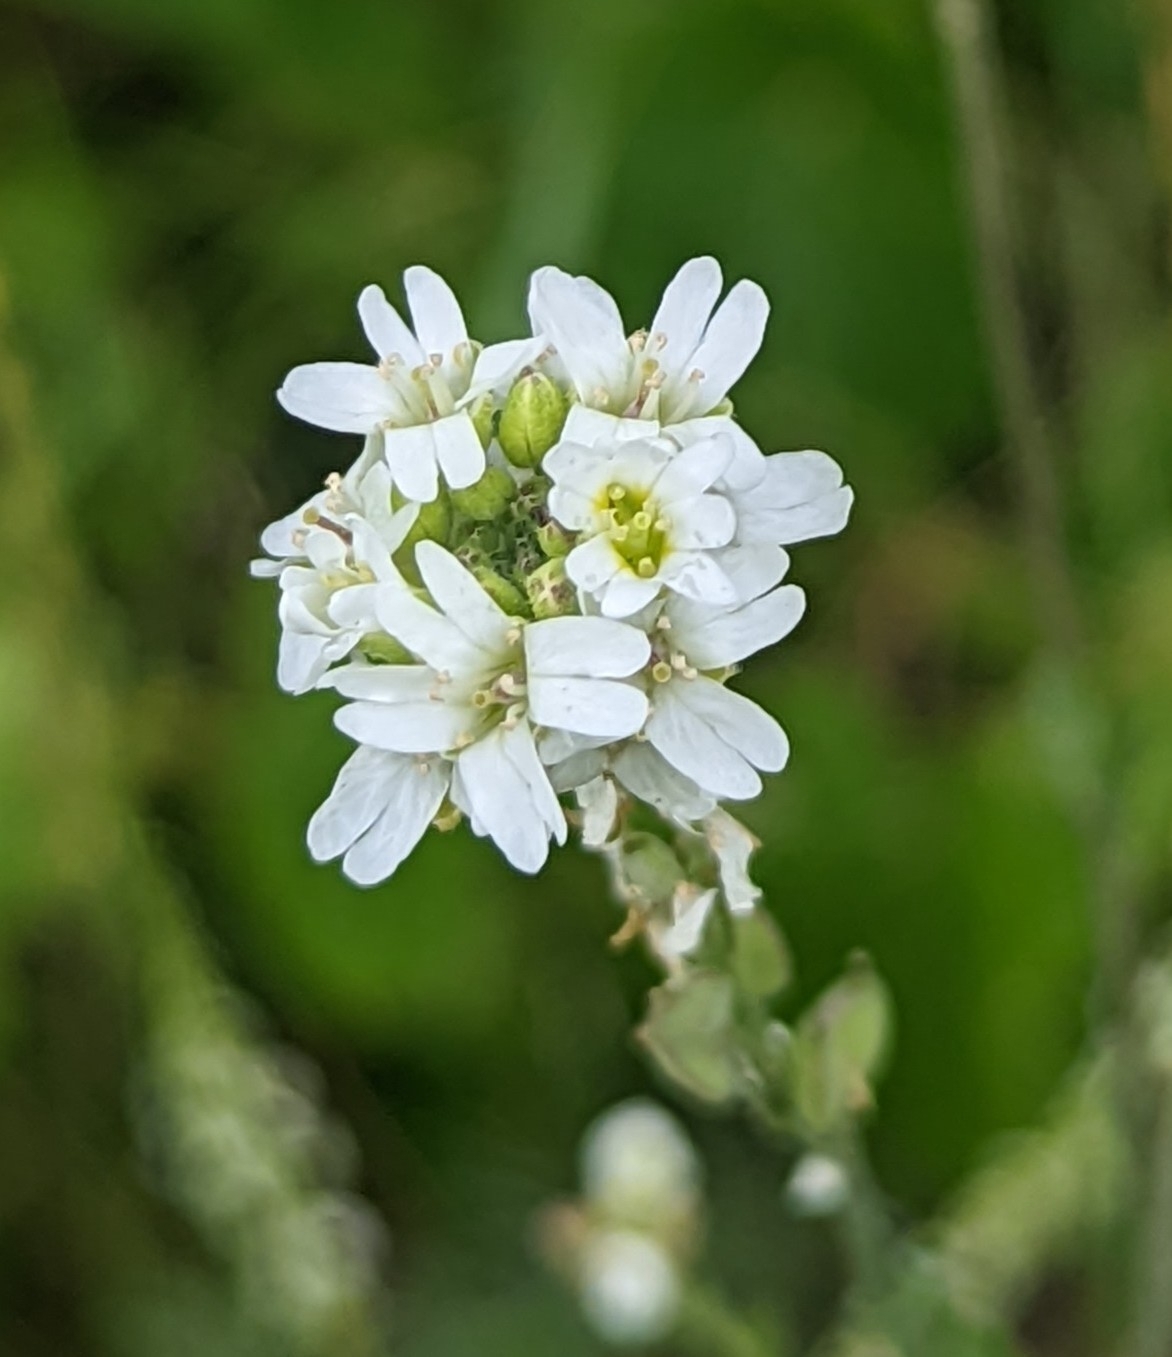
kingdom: Plantae
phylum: Tracheophyta
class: Magnoliopsida
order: Brassicales
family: Brassicaceae
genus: Berteroa
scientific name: Berteroa incana
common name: Hoary alison
